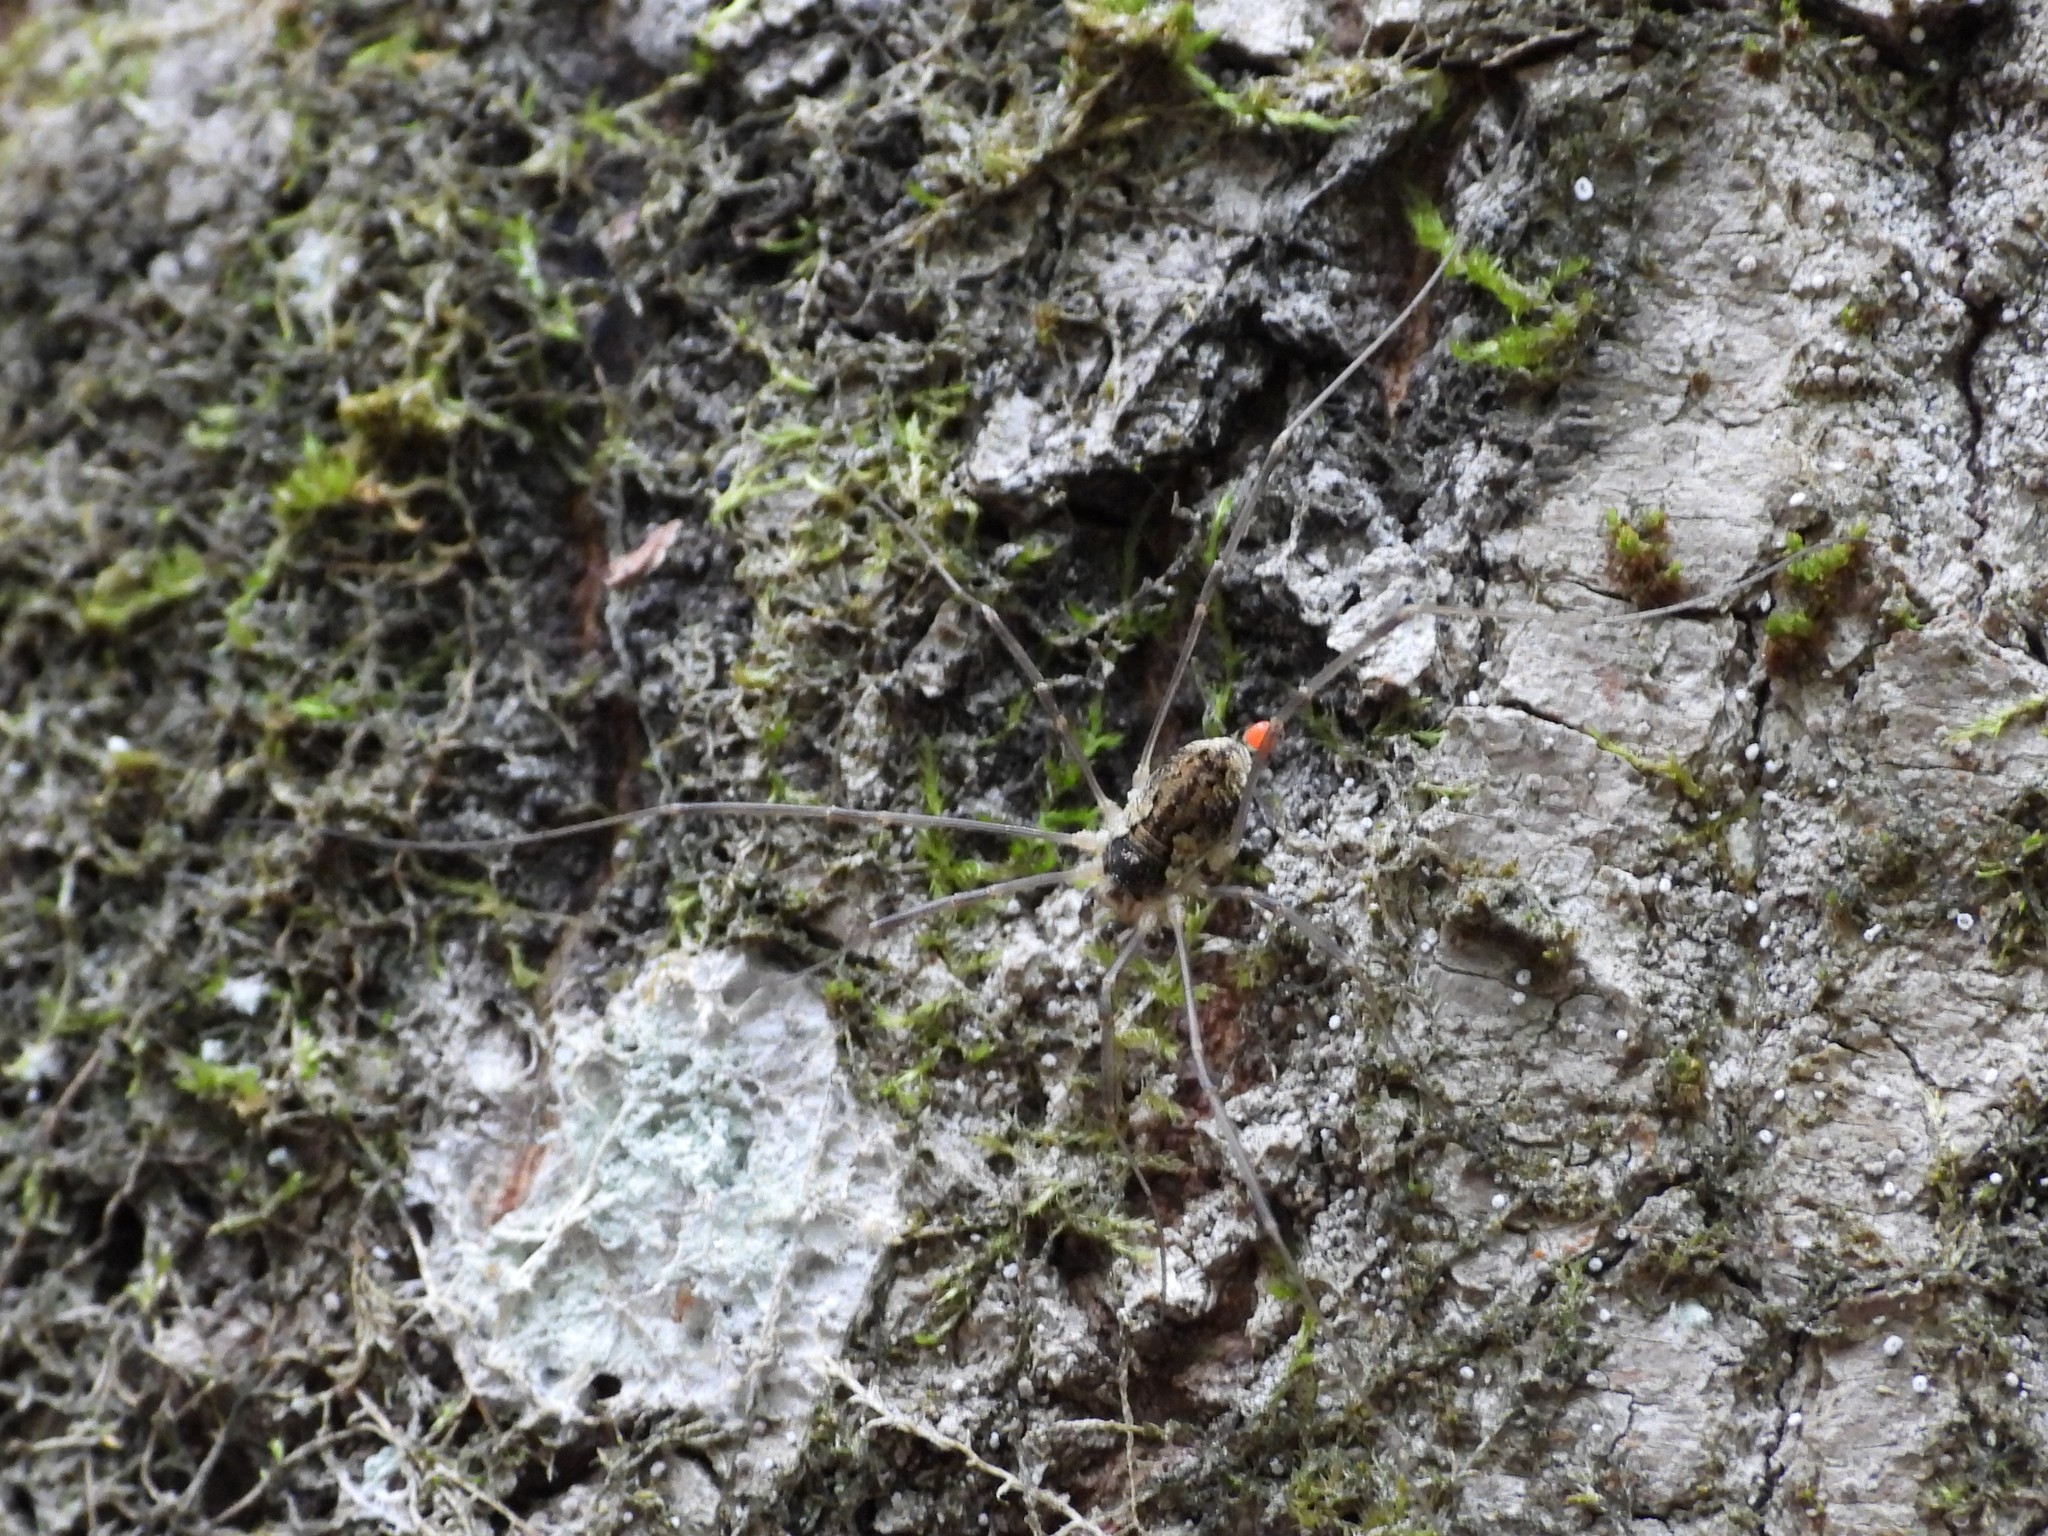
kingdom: Animalia
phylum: Arthropoda
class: Arachnida
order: Opiliones
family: Phalangiidae
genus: Mitopus
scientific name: Mitopus morio
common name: Saddleback harvestman
